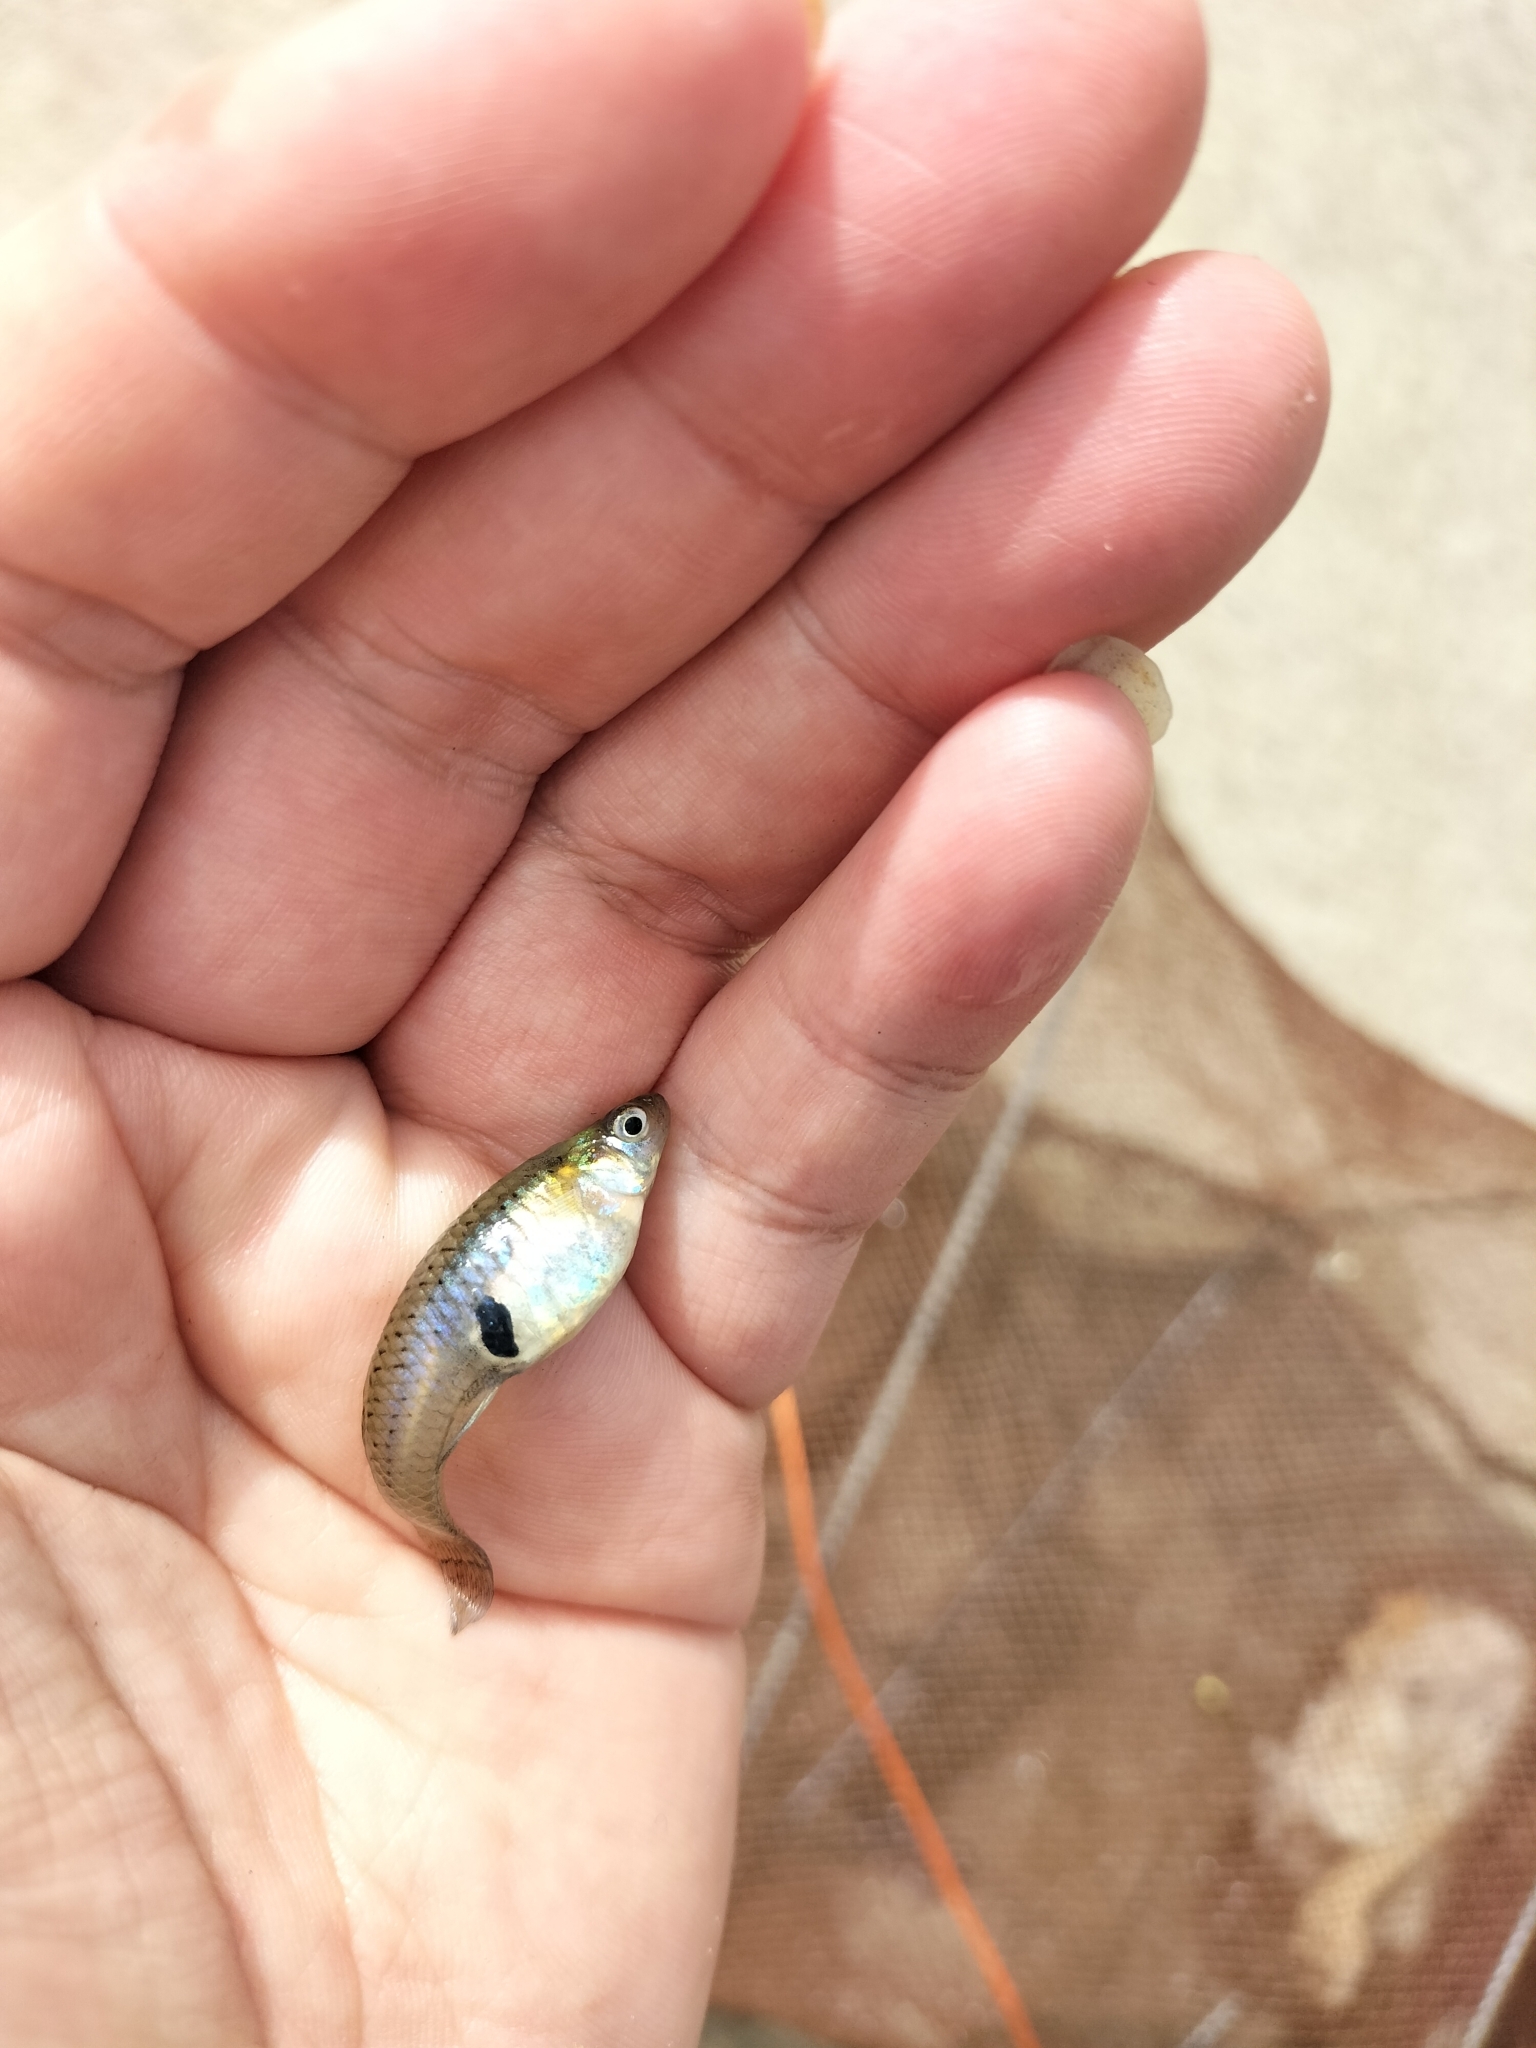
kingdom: Animalia
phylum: Chordata
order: Cyprinodontiformes
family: Poeciliidae
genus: Gambusia
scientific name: Gambusia holbrooki
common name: Eastern mosquitofish
